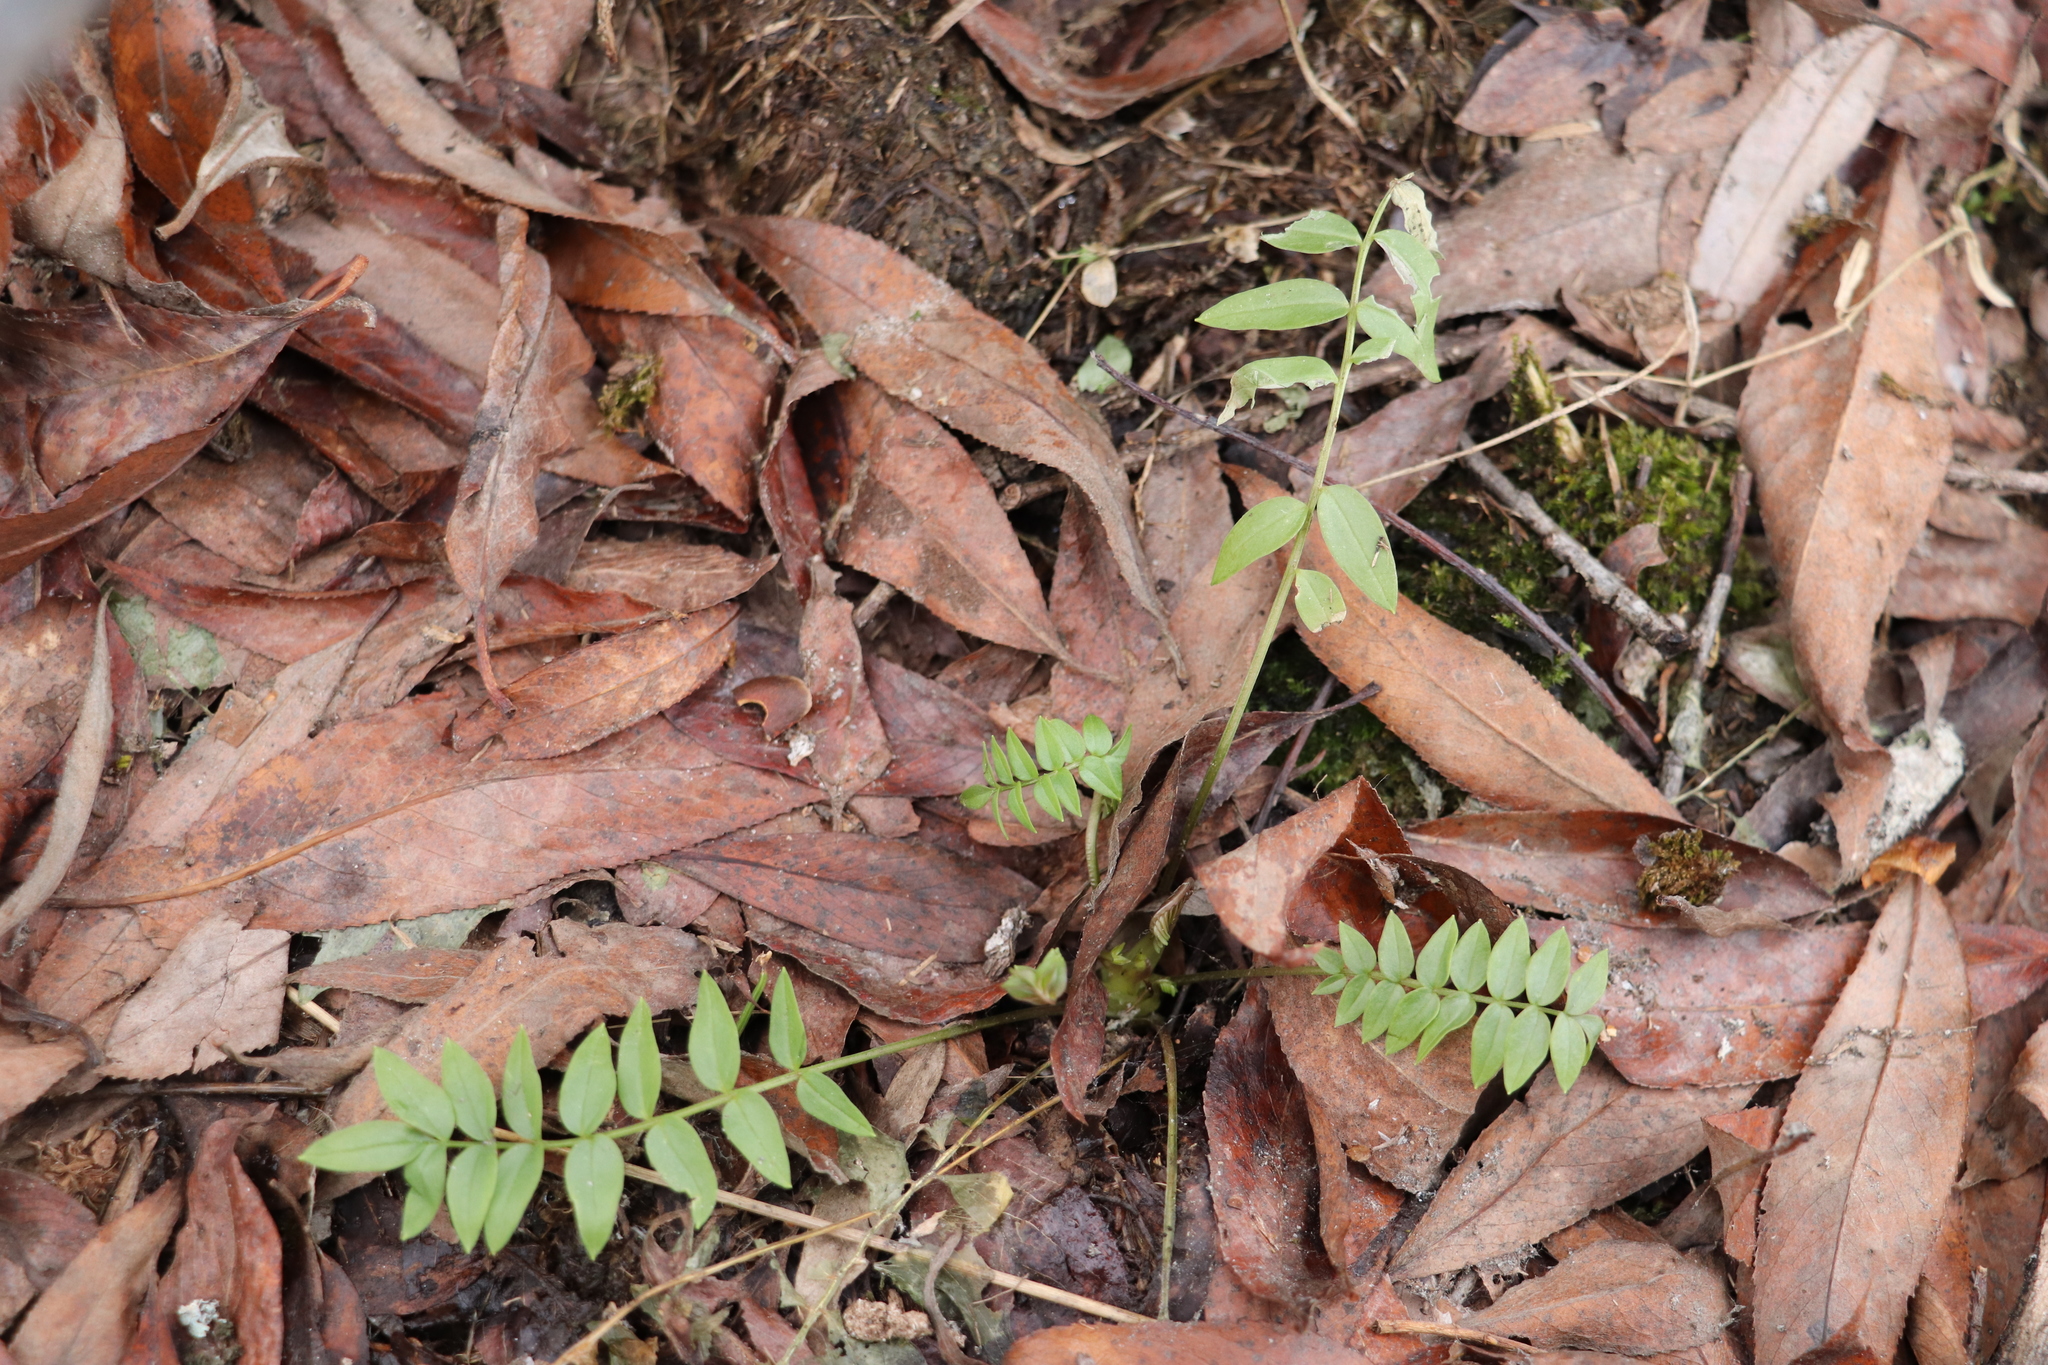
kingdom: Plantae
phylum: Tracheophyta
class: Magnoliopsida
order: Ericales
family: Polemoniaceae
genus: Polemonium
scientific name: Polemonium caeruleum
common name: Jacob's-ladder
